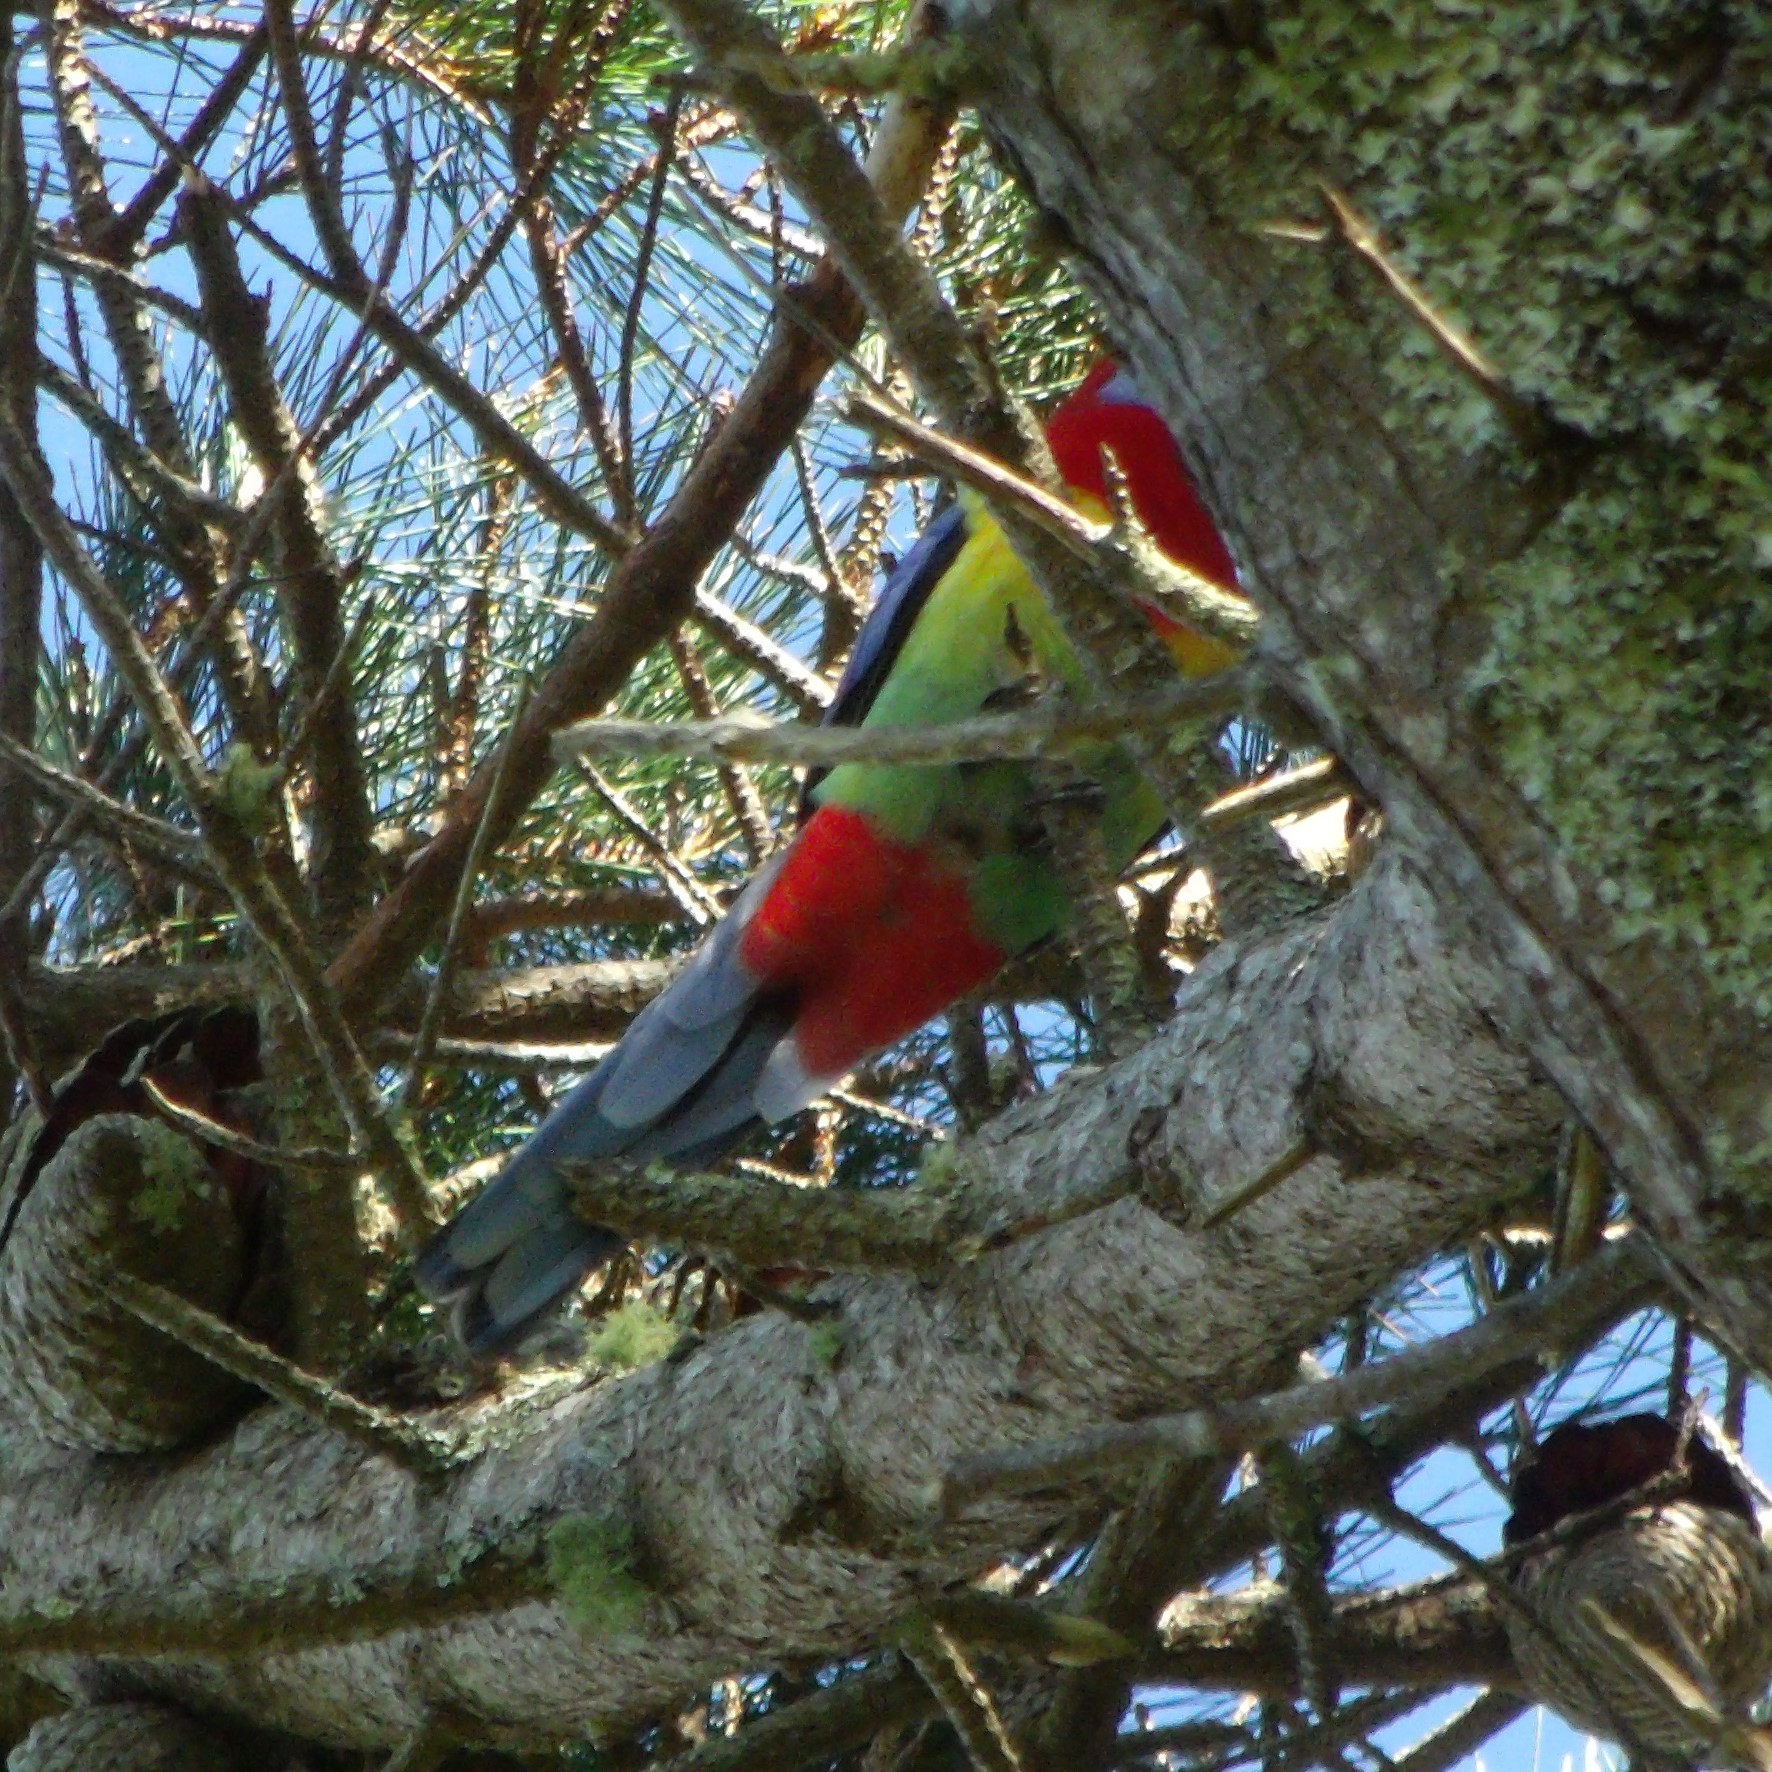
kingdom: Animalia
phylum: Chordata
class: Aves
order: Psittaciformes
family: Psittacidae
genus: Platycercus
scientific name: Platycercus eximius
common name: Eastern rosella
